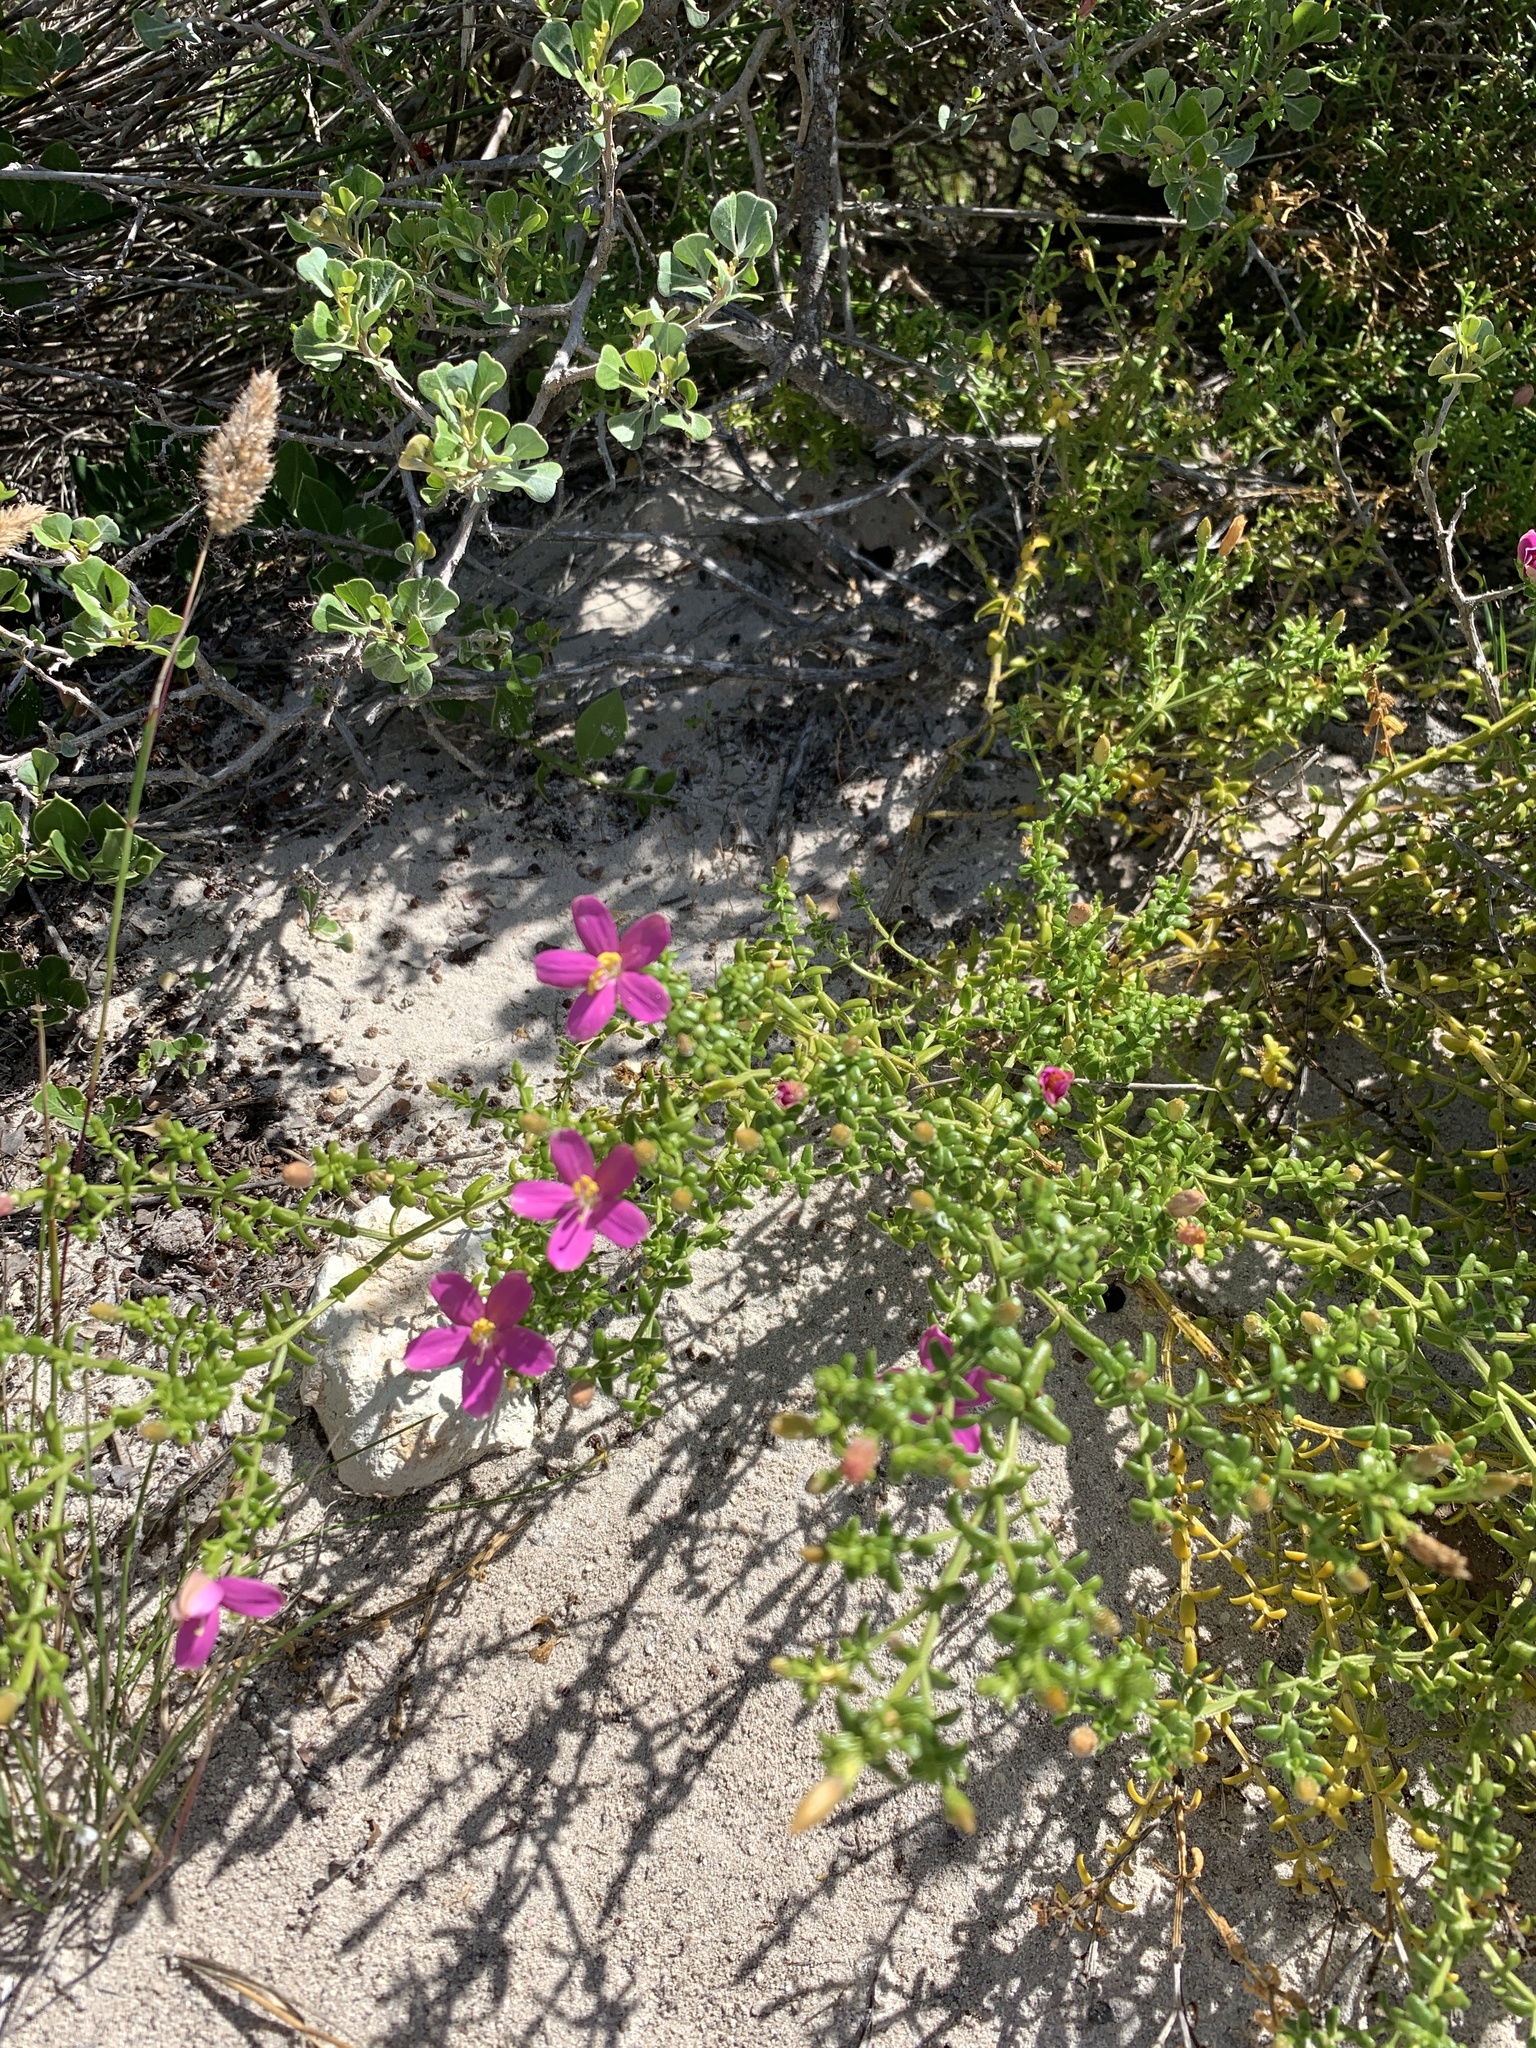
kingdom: Plantae
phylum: Tracheophyta
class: Magnoliopsida
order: Gentianales
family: Gentianaceae
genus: Chironia
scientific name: Chironia baccifera
